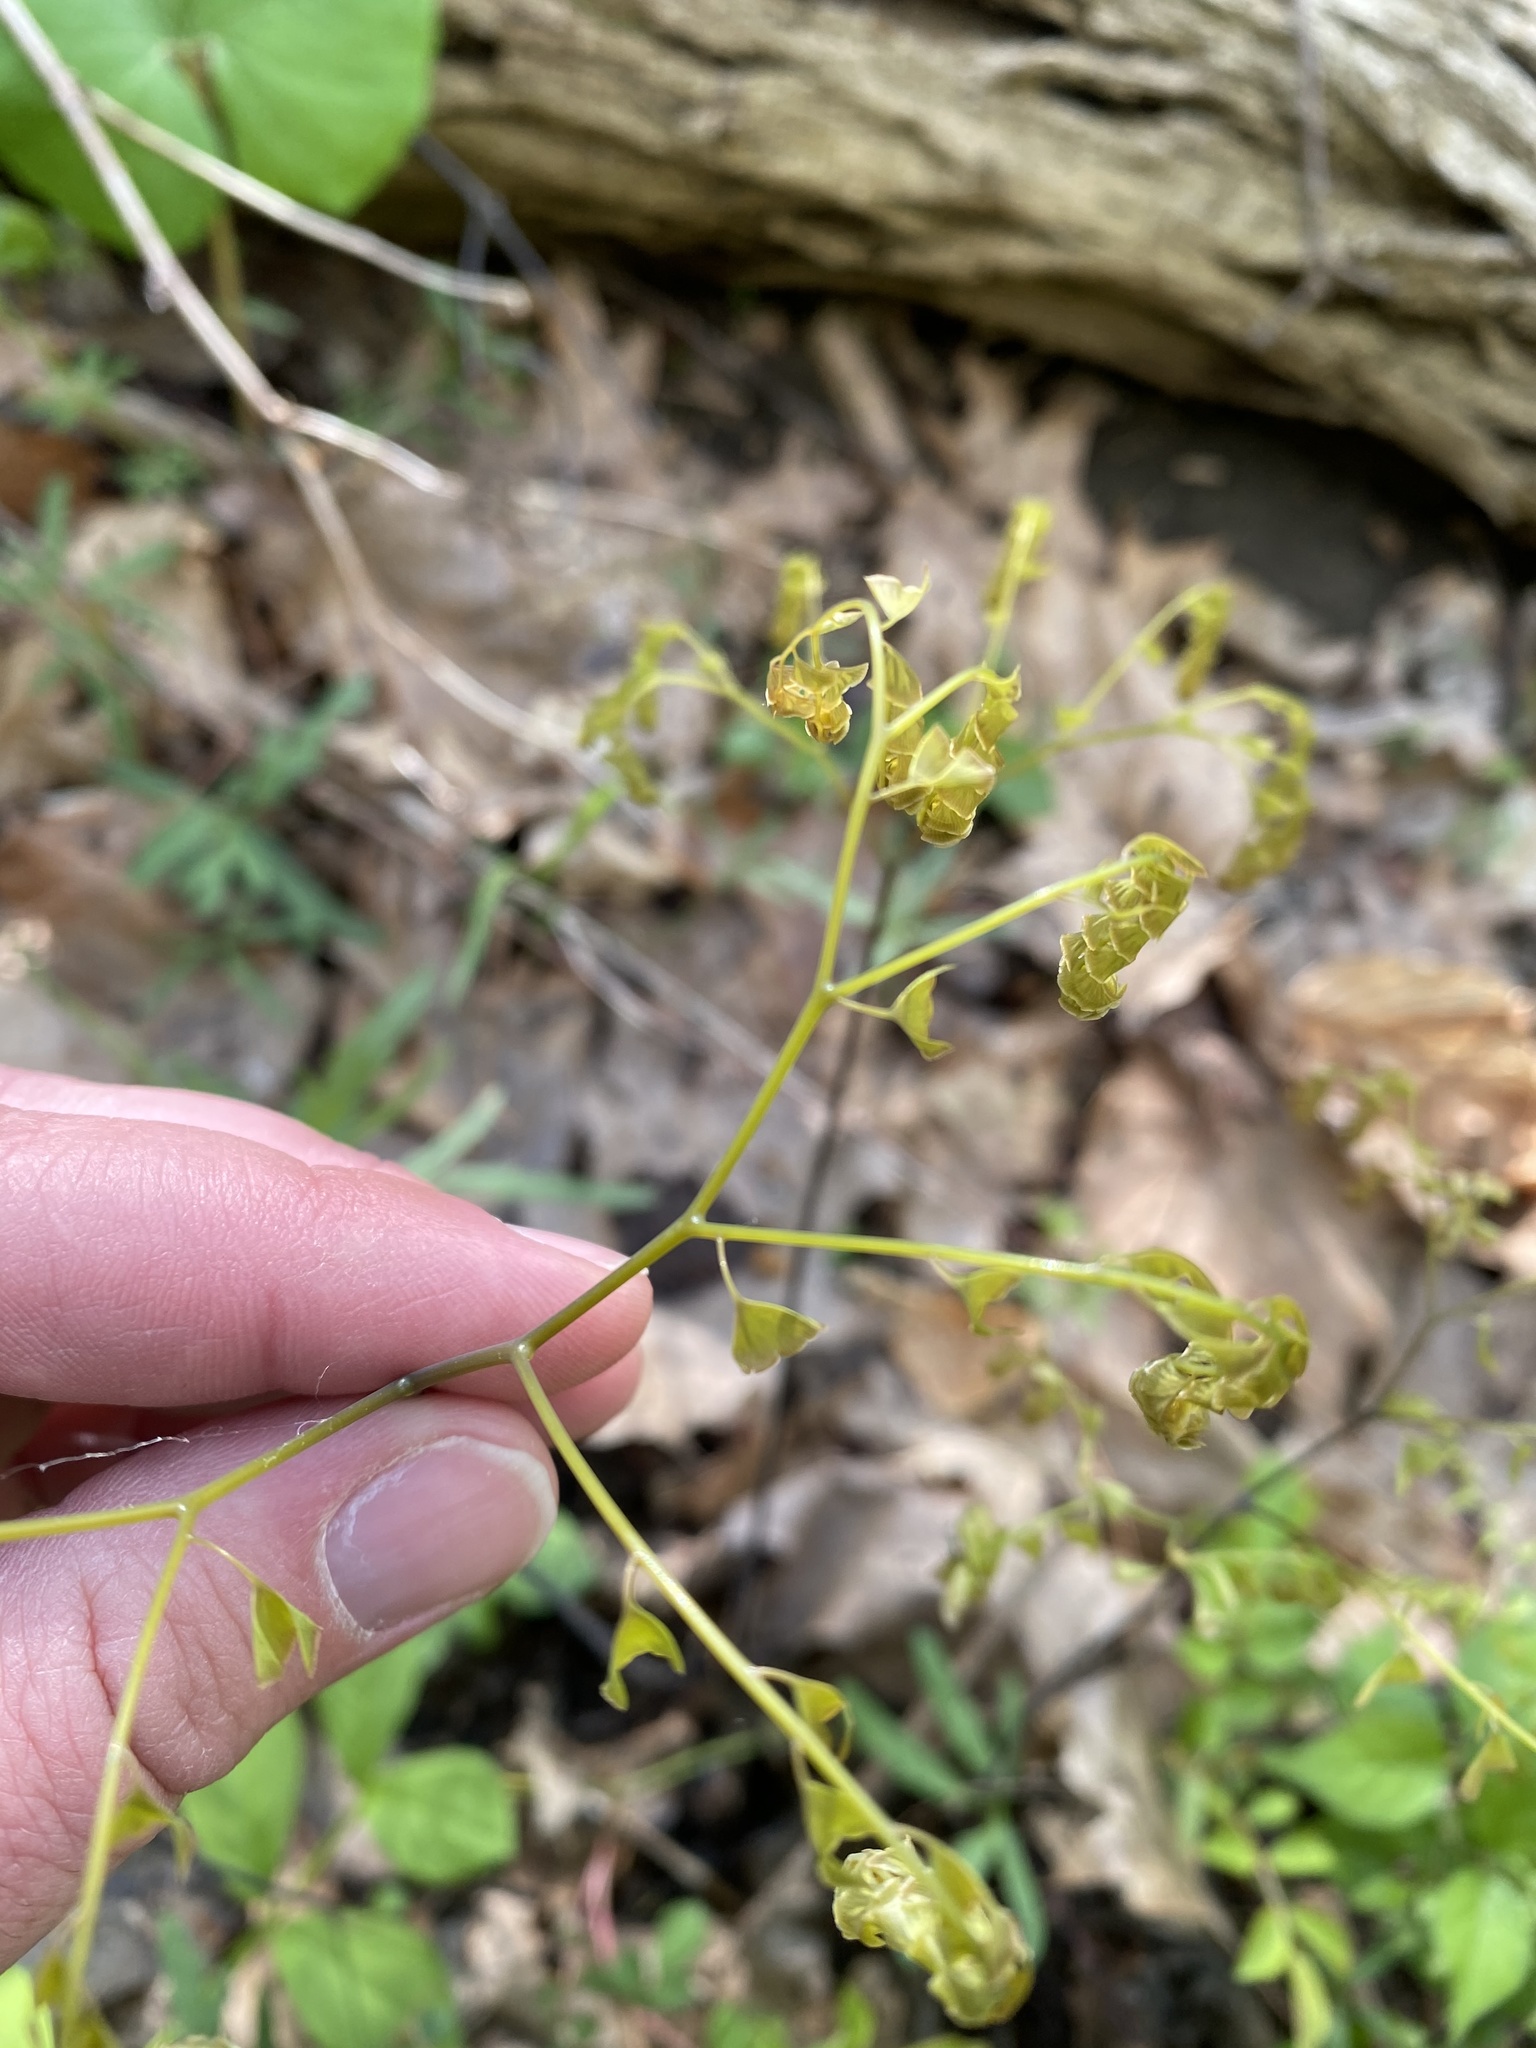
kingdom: Plantae
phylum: Tracheophyta
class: Polypodiopsida
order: Polypodiales
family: Pteridaceae
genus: Adiantum
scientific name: Adiantum pedatum
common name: Five-finger fern
